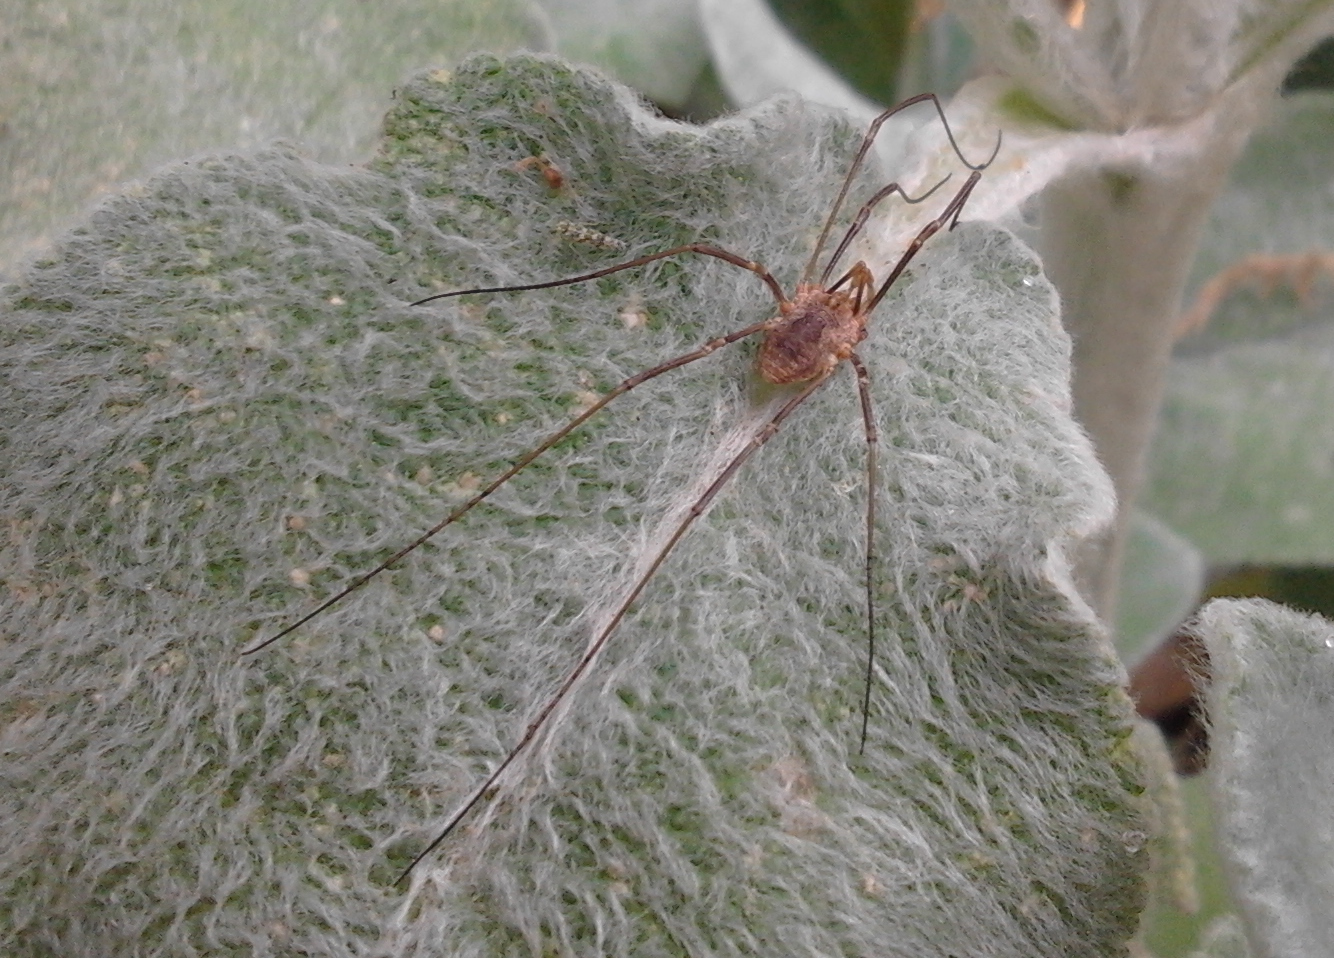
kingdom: Animalia
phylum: Arthropoda
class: Arachnida
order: Opiliones
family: Phalangiidae
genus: Phalangium
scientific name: Phalangium opilio
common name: Daddy longleg
